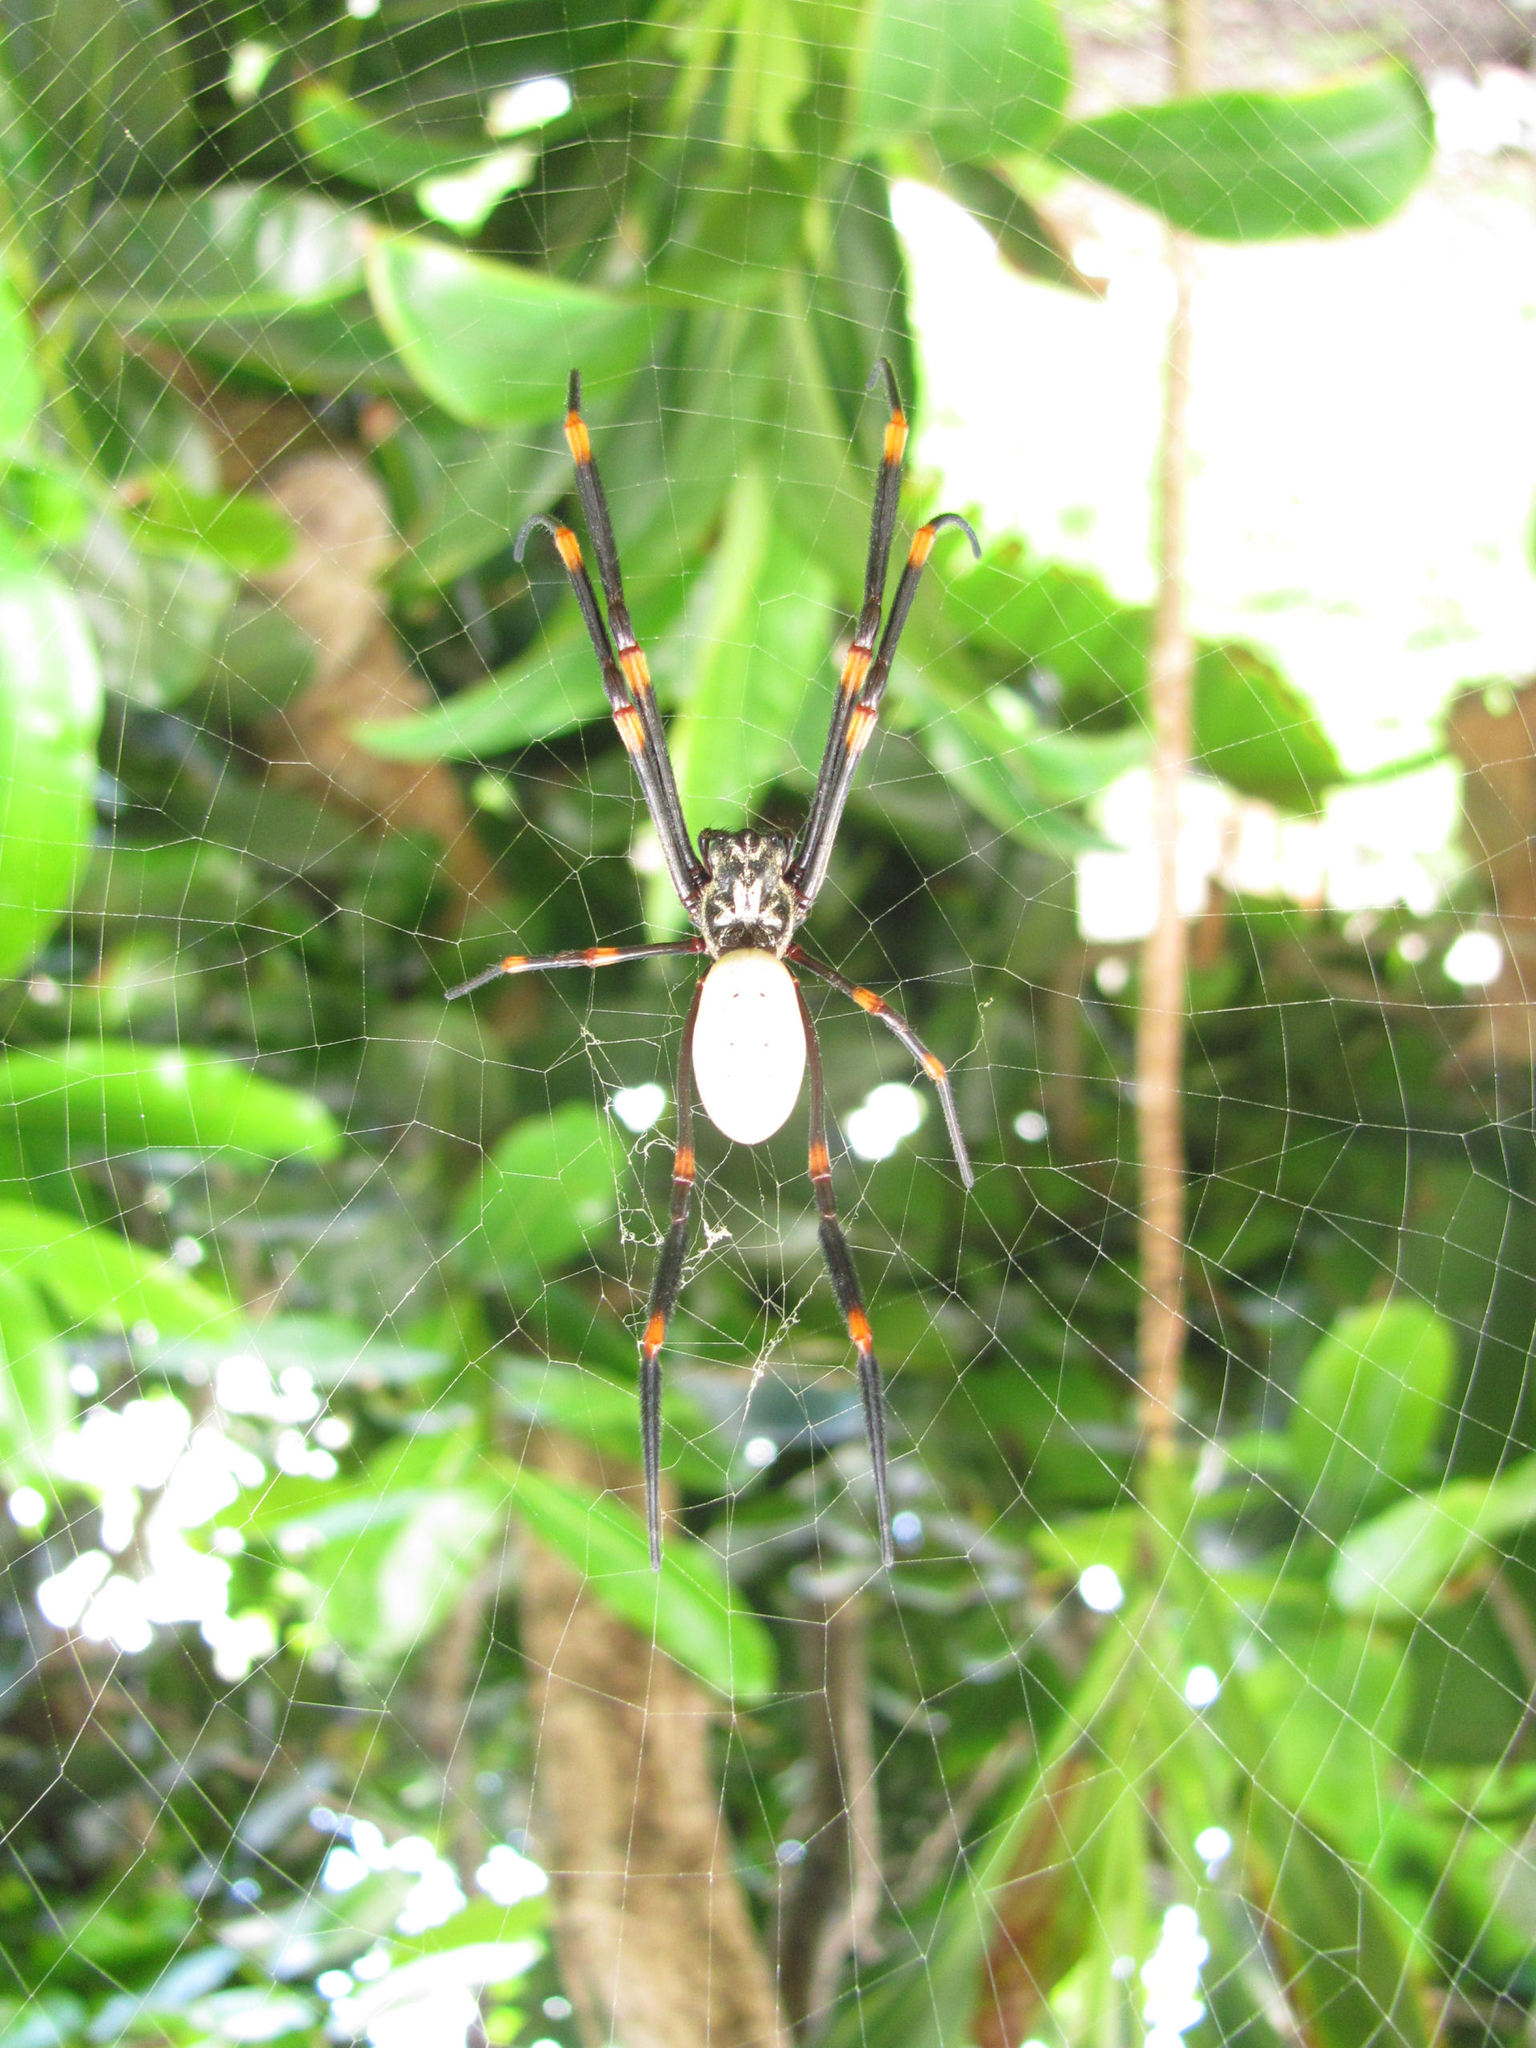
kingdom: Animalia
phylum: Arthropoda
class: Arachnida
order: Araneae
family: Araneidae
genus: Nephila
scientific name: Nephila tetragnathoides
